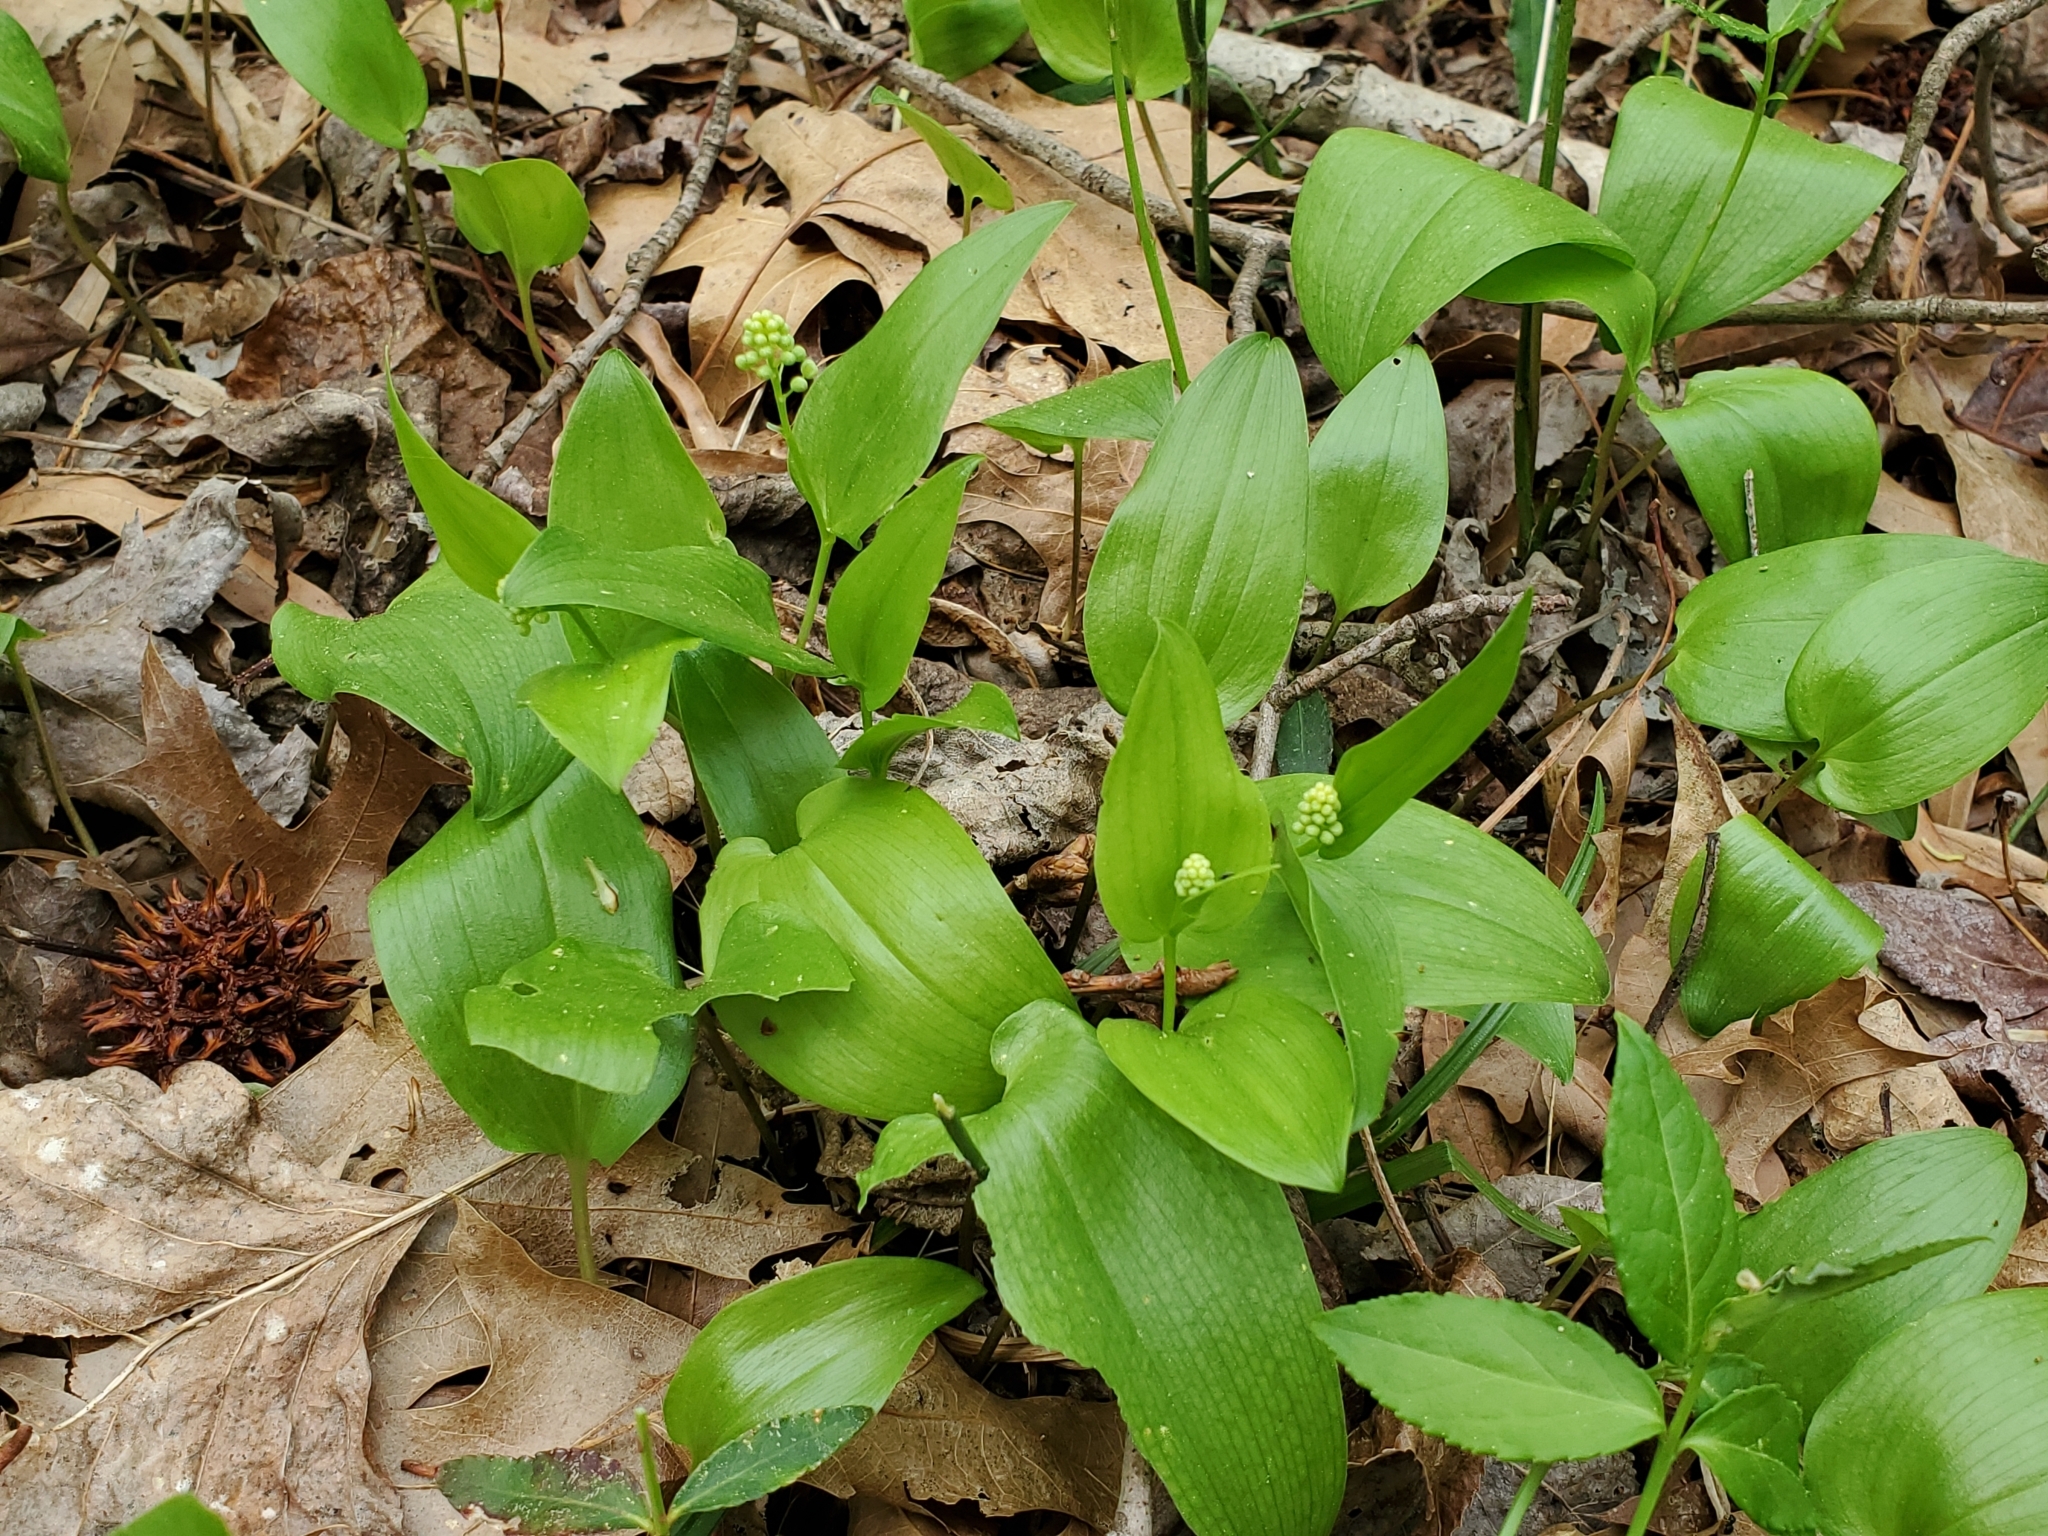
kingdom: Plantae
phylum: Tracheophyta
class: Liliopsida
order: Asparagales
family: Asparagaceae
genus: Maianthemum
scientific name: Maianthemum canadense
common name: False lily-of-the-valley
